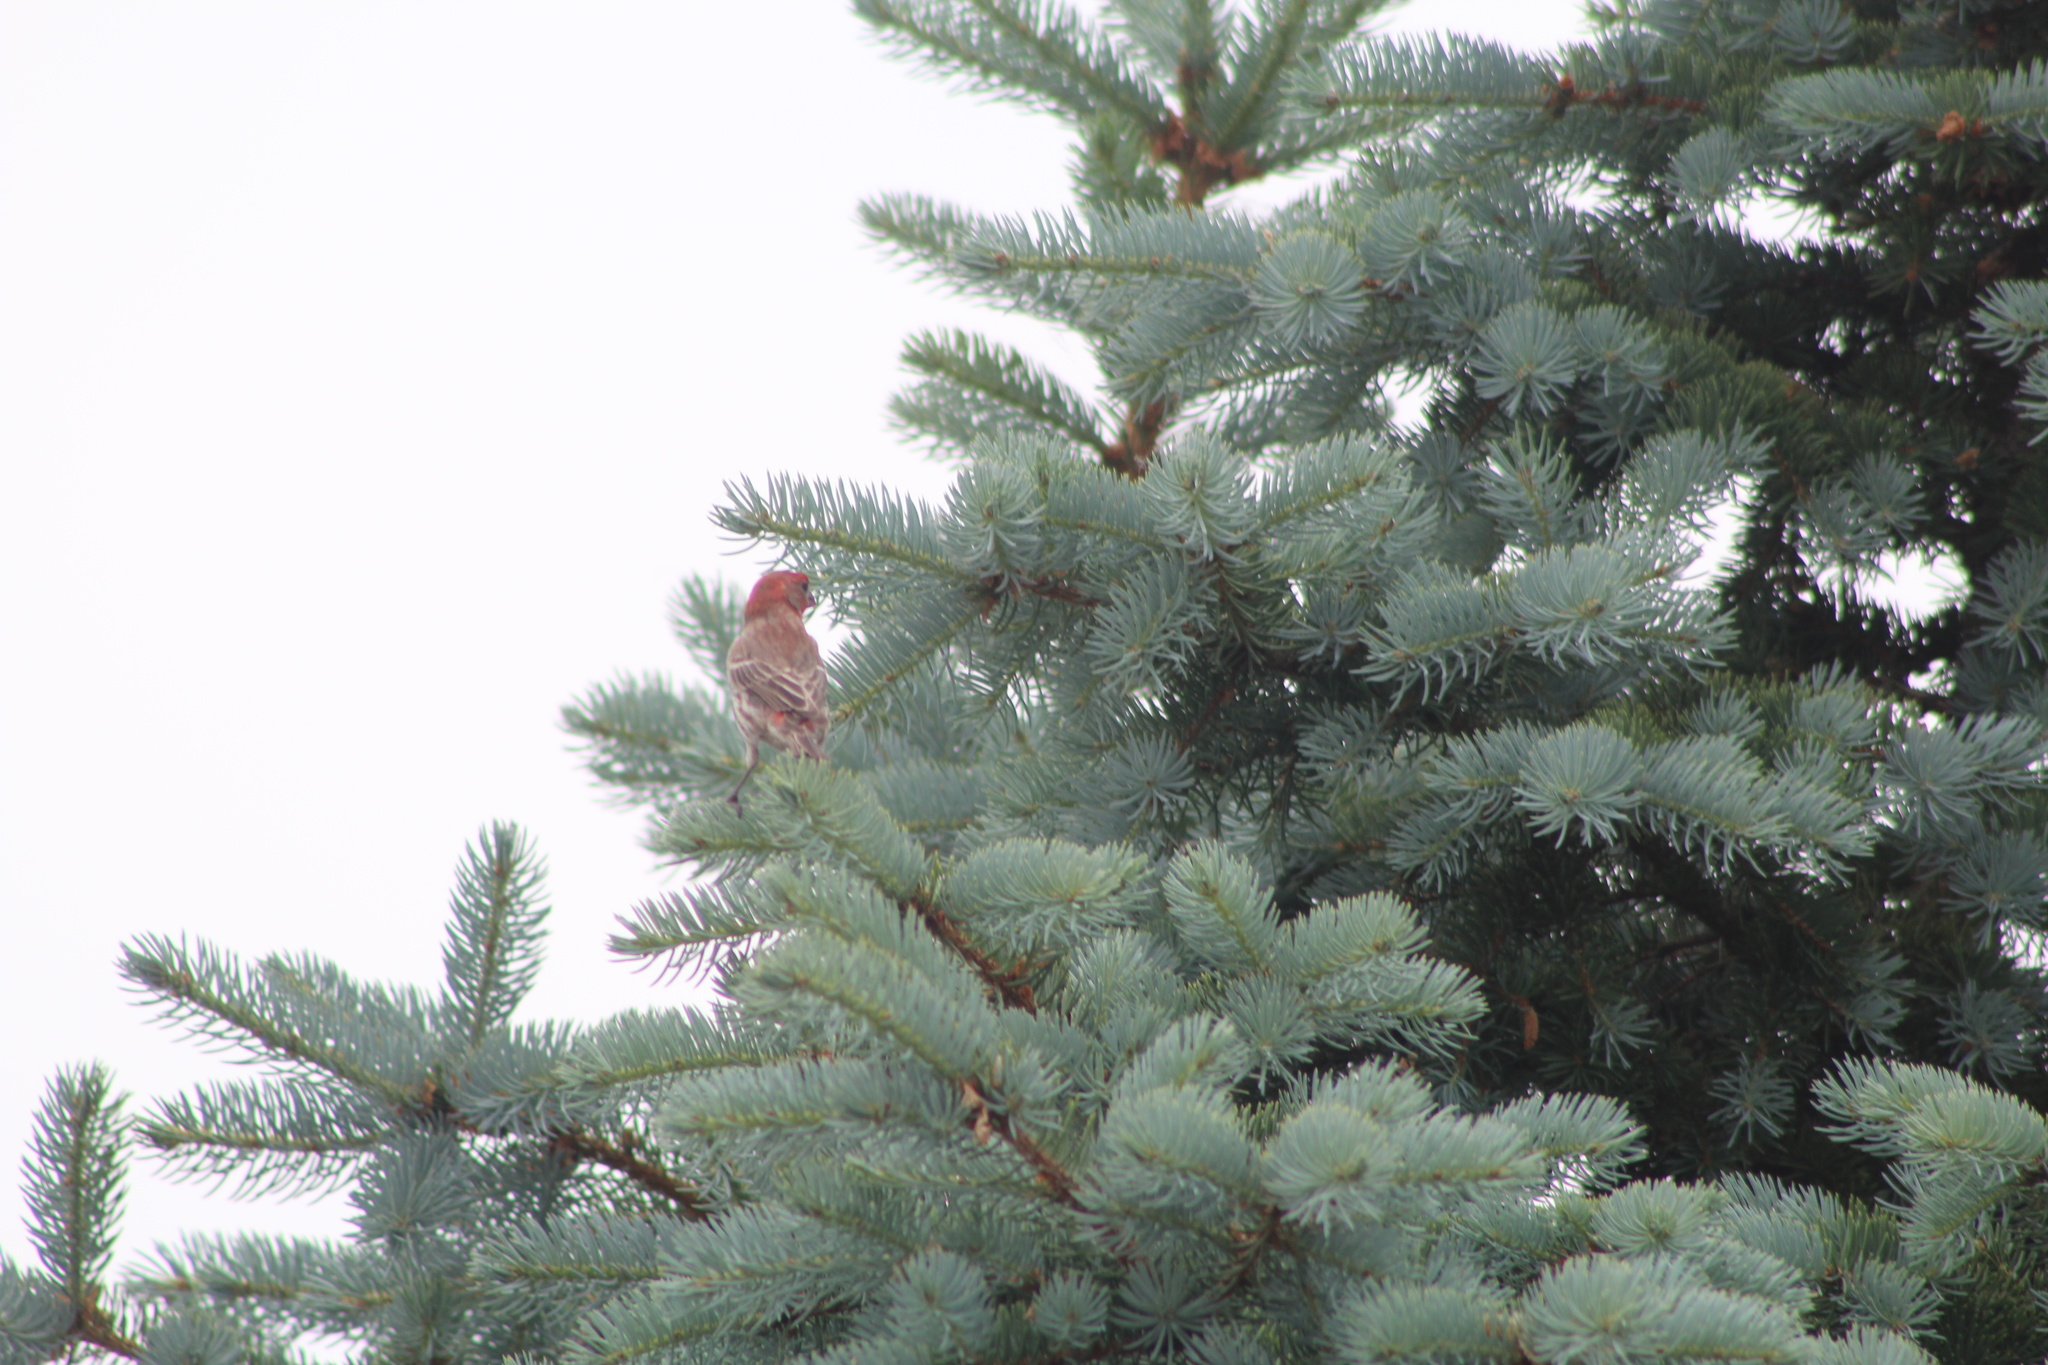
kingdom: Animalia
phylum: Chordata
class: Aves
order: Passeriformes
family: Fringillidae
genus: Haemorhous
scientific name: Haemorhous mexicanus
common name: House finch
